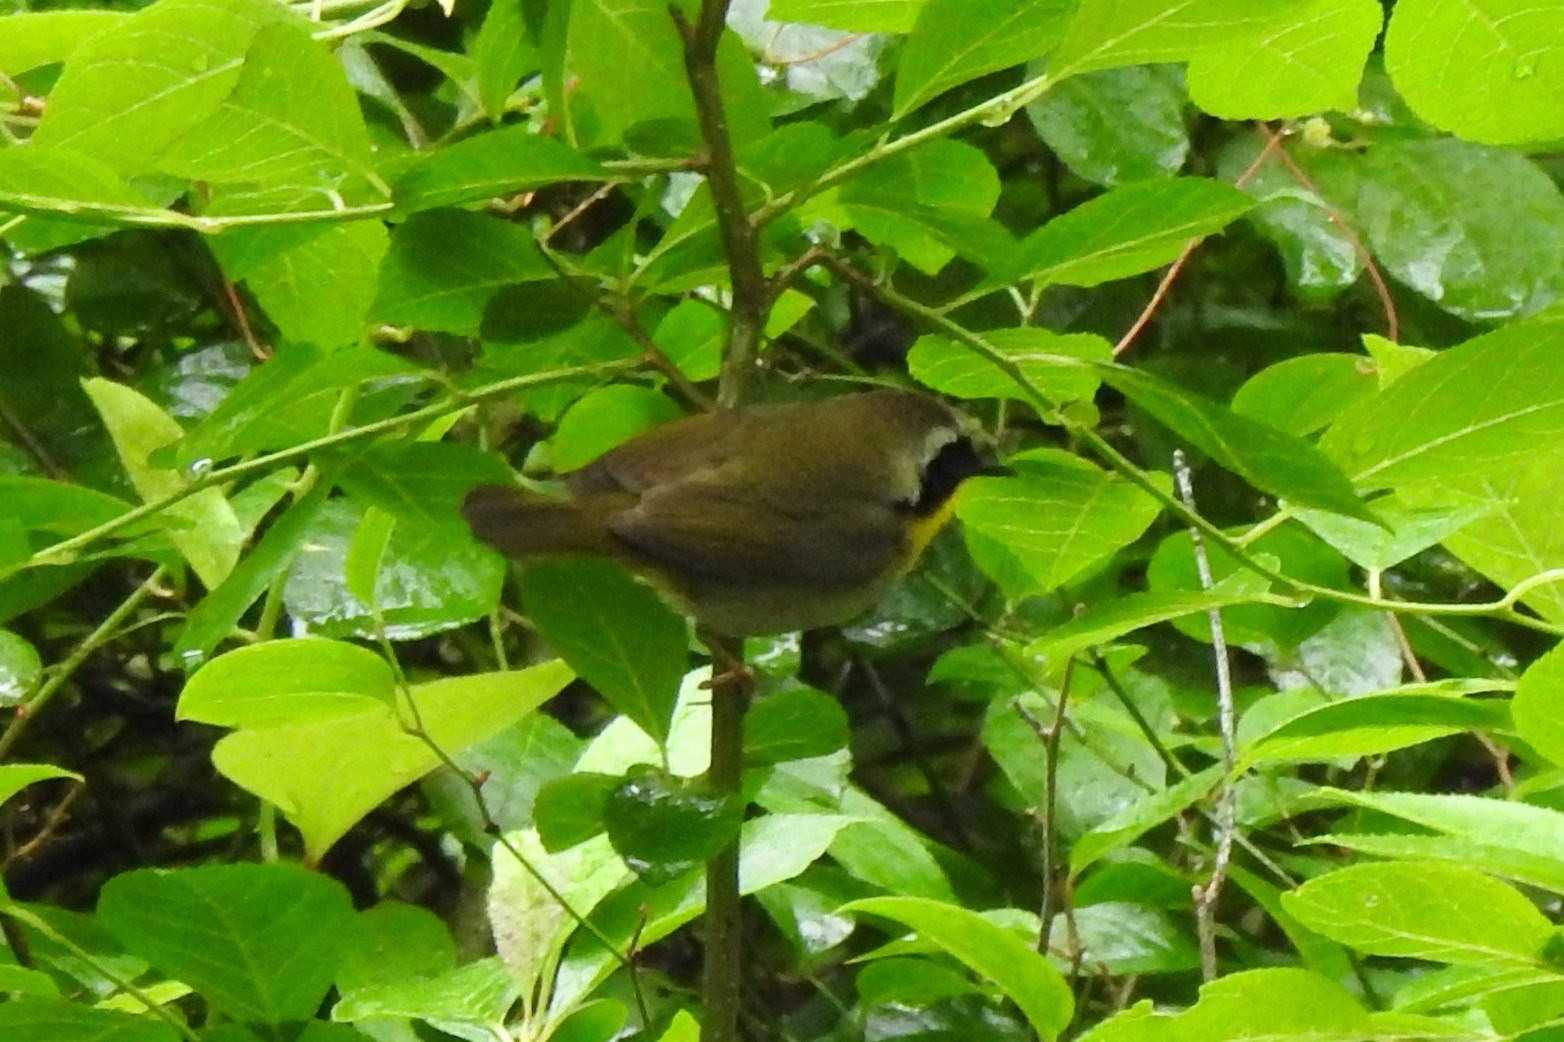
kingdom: Animalia
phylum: Chordata
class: Aves
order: Passeriformes
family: Parulidae
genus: Geothlypis
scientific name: Geothlypis trichas
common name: Common yellowthroat
